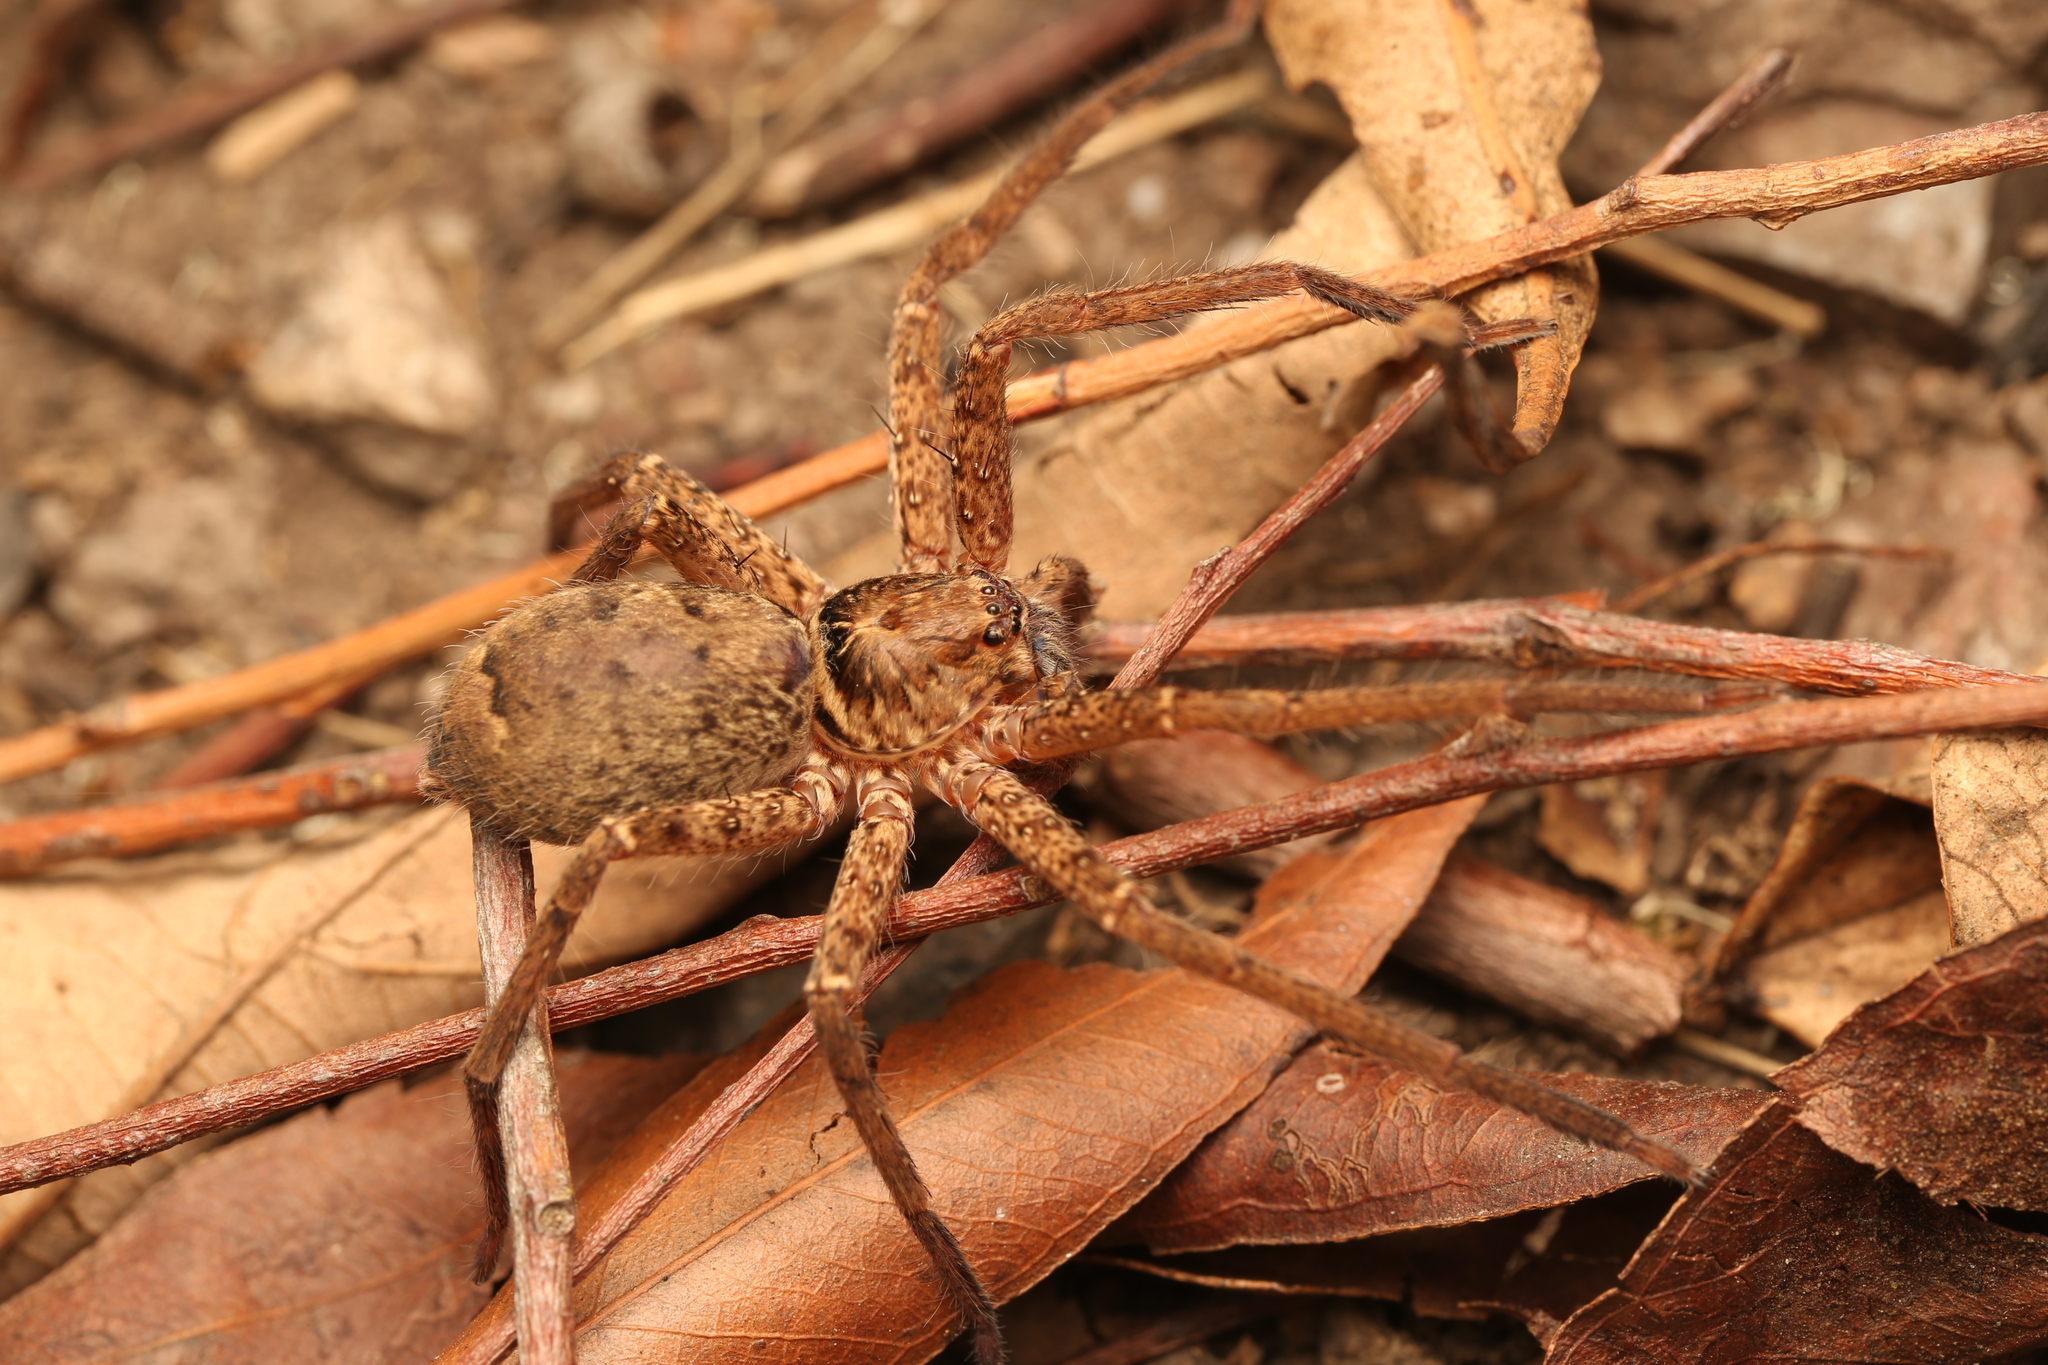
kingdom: Animalia
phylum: Arthropoda
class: Arachnida
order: Araneae
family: Sparassidae
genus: Heteropoda
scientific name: Heteropoda jugulans
